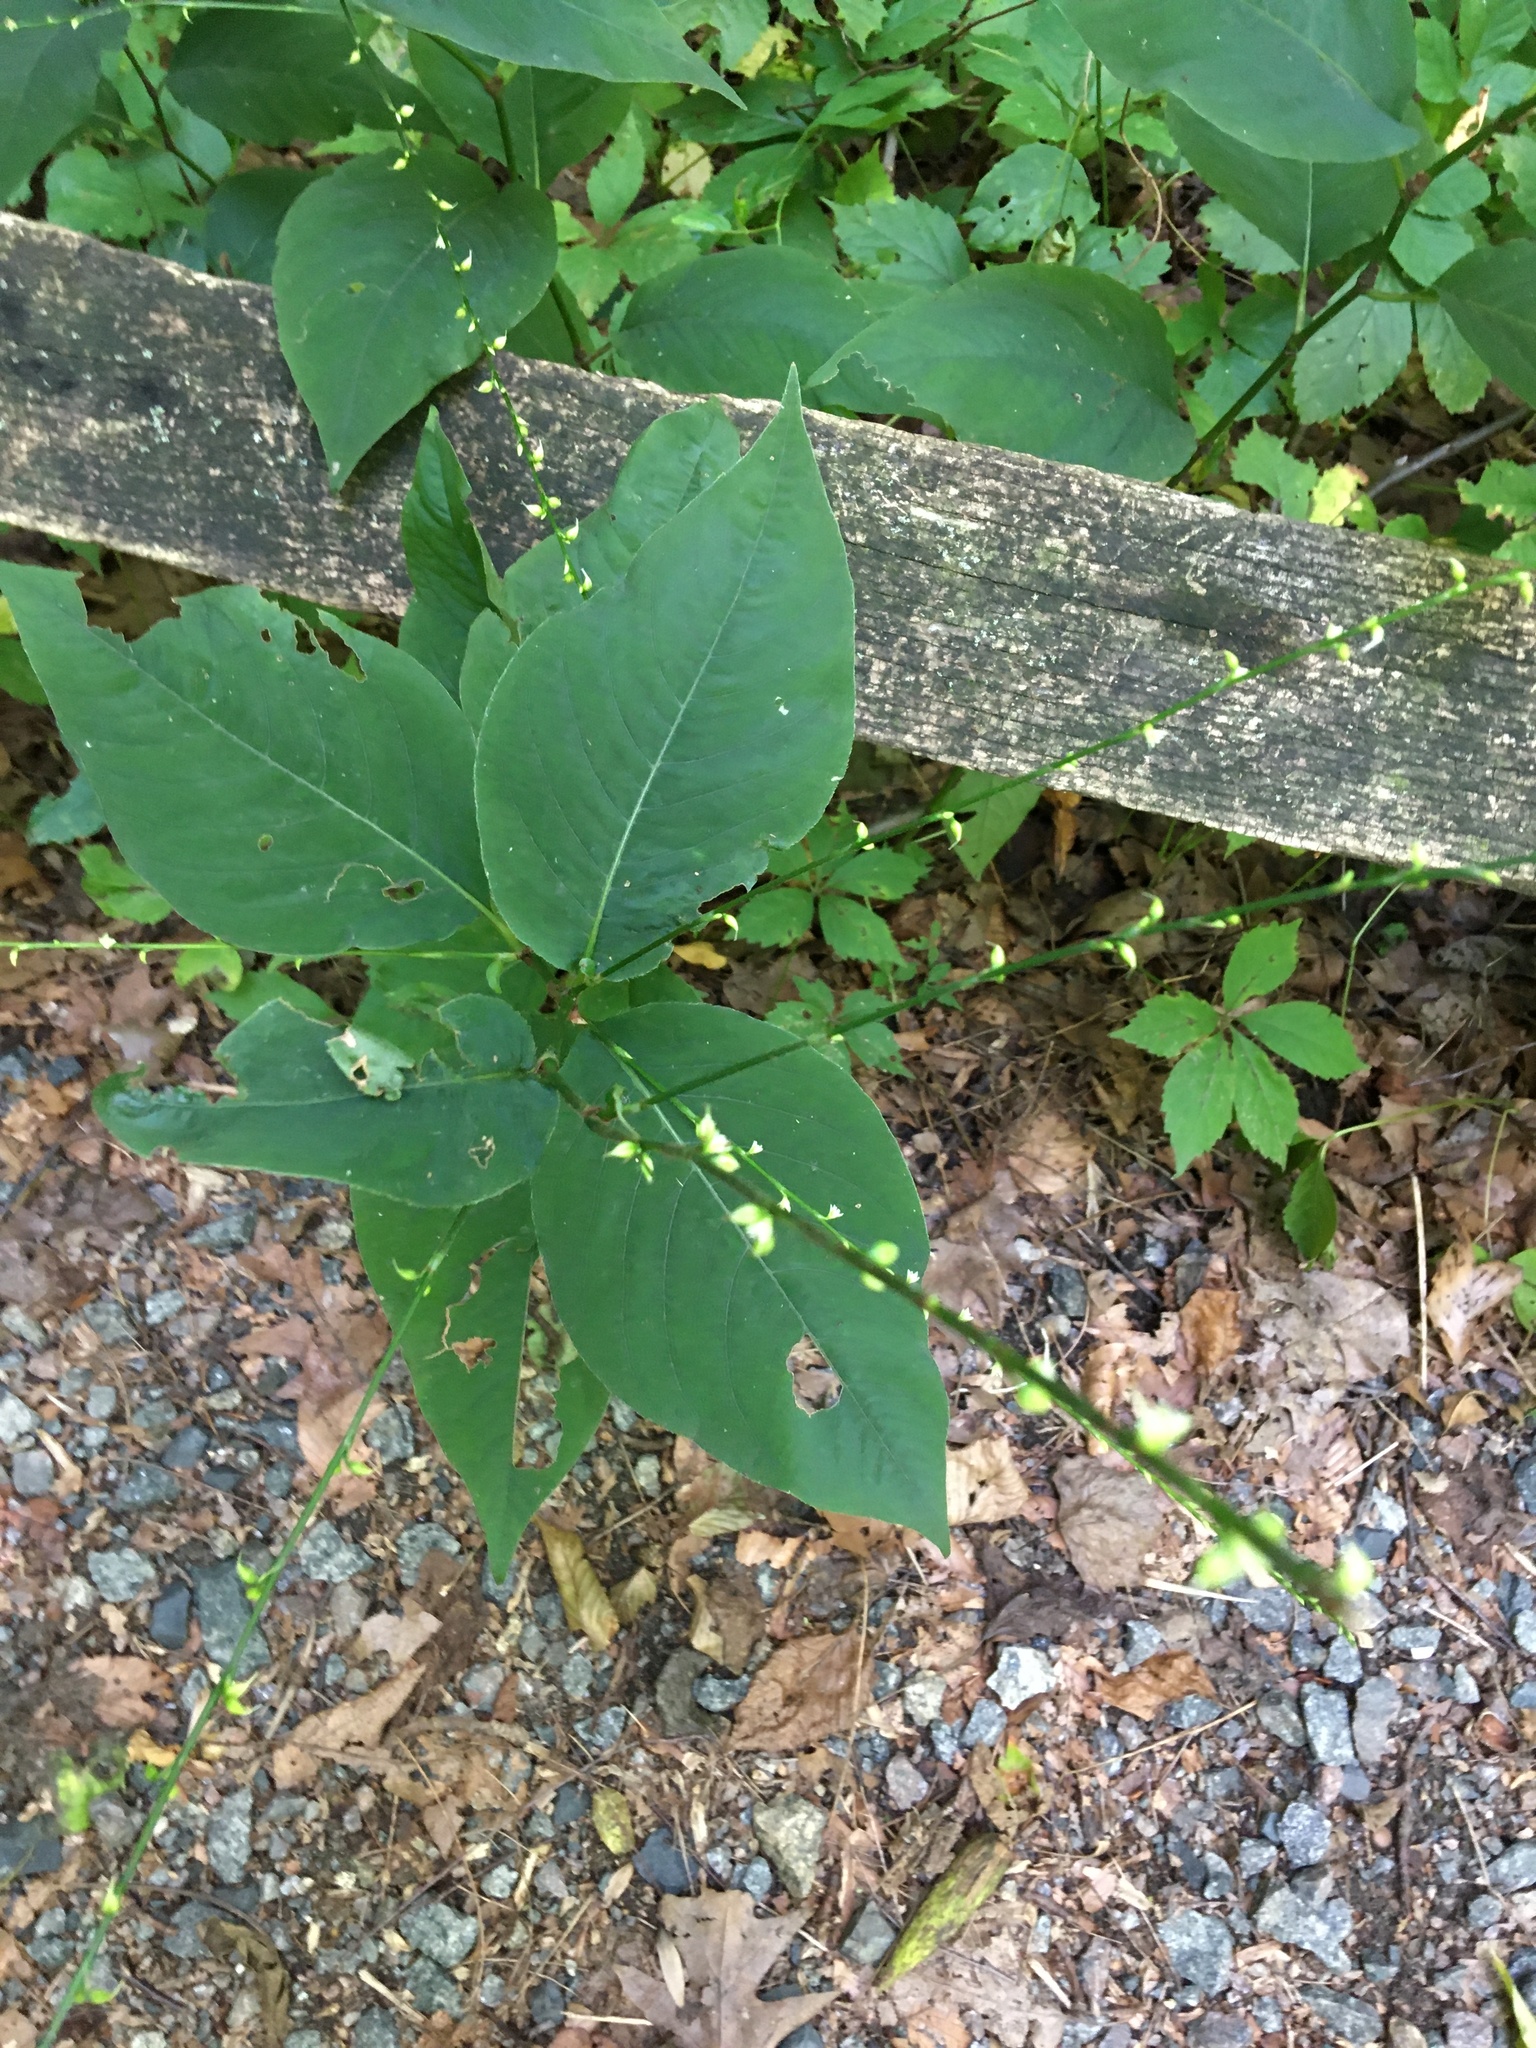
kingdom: Plantae
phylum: Tracheophyta
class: Magnoliopsida
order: Caryophyllales
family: Polygonaceae
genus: Persicaria
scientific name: Persicaria virginiana
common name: Jumpseed
